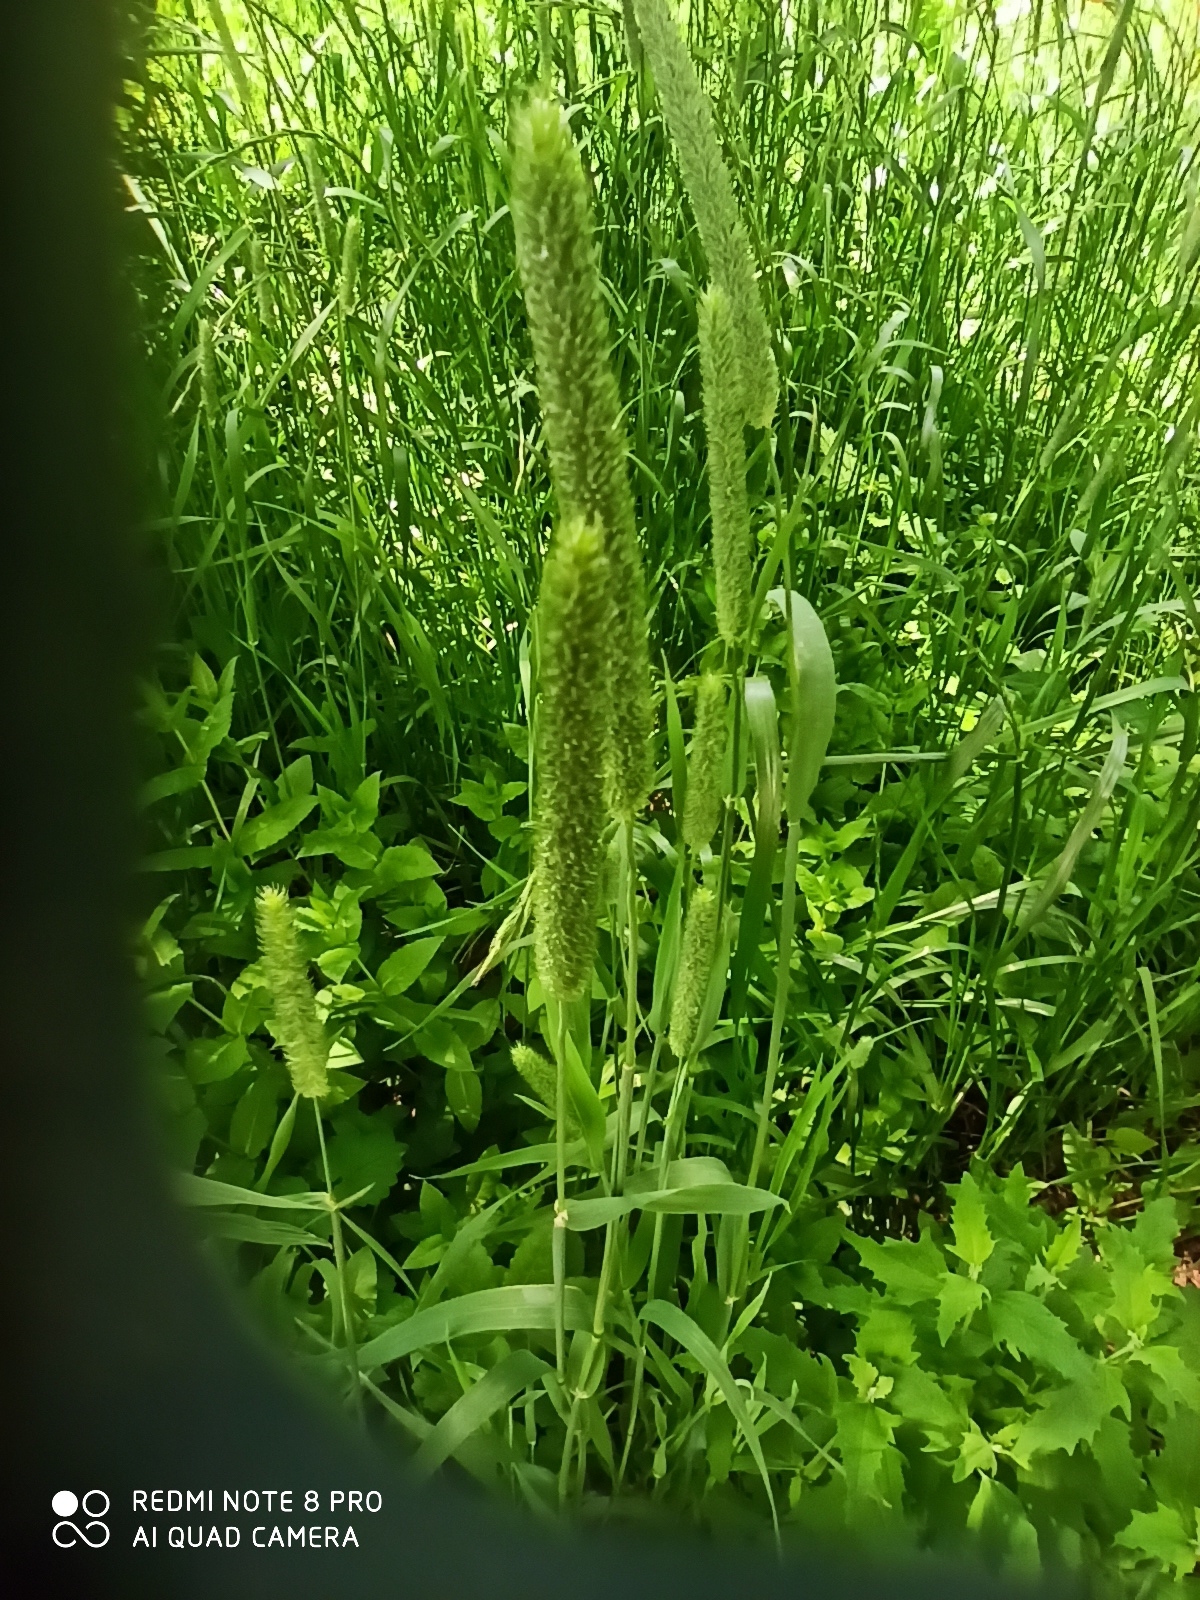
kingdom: Plantae
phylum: Tracheophyta
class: Liliopsida
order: Poales
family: Poaceae
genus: Phleum
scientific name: Phleum pratense
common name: Timothy grass
